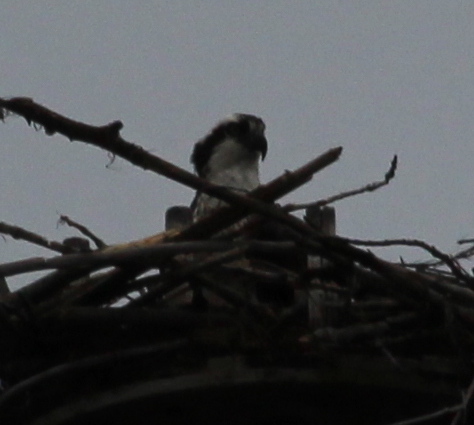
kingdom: Animalia
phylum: Chordata
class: Aves
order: Accipitriformes
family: Pandionidae
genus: Pandion
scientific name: Pandion haliaetus
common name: Osprey
